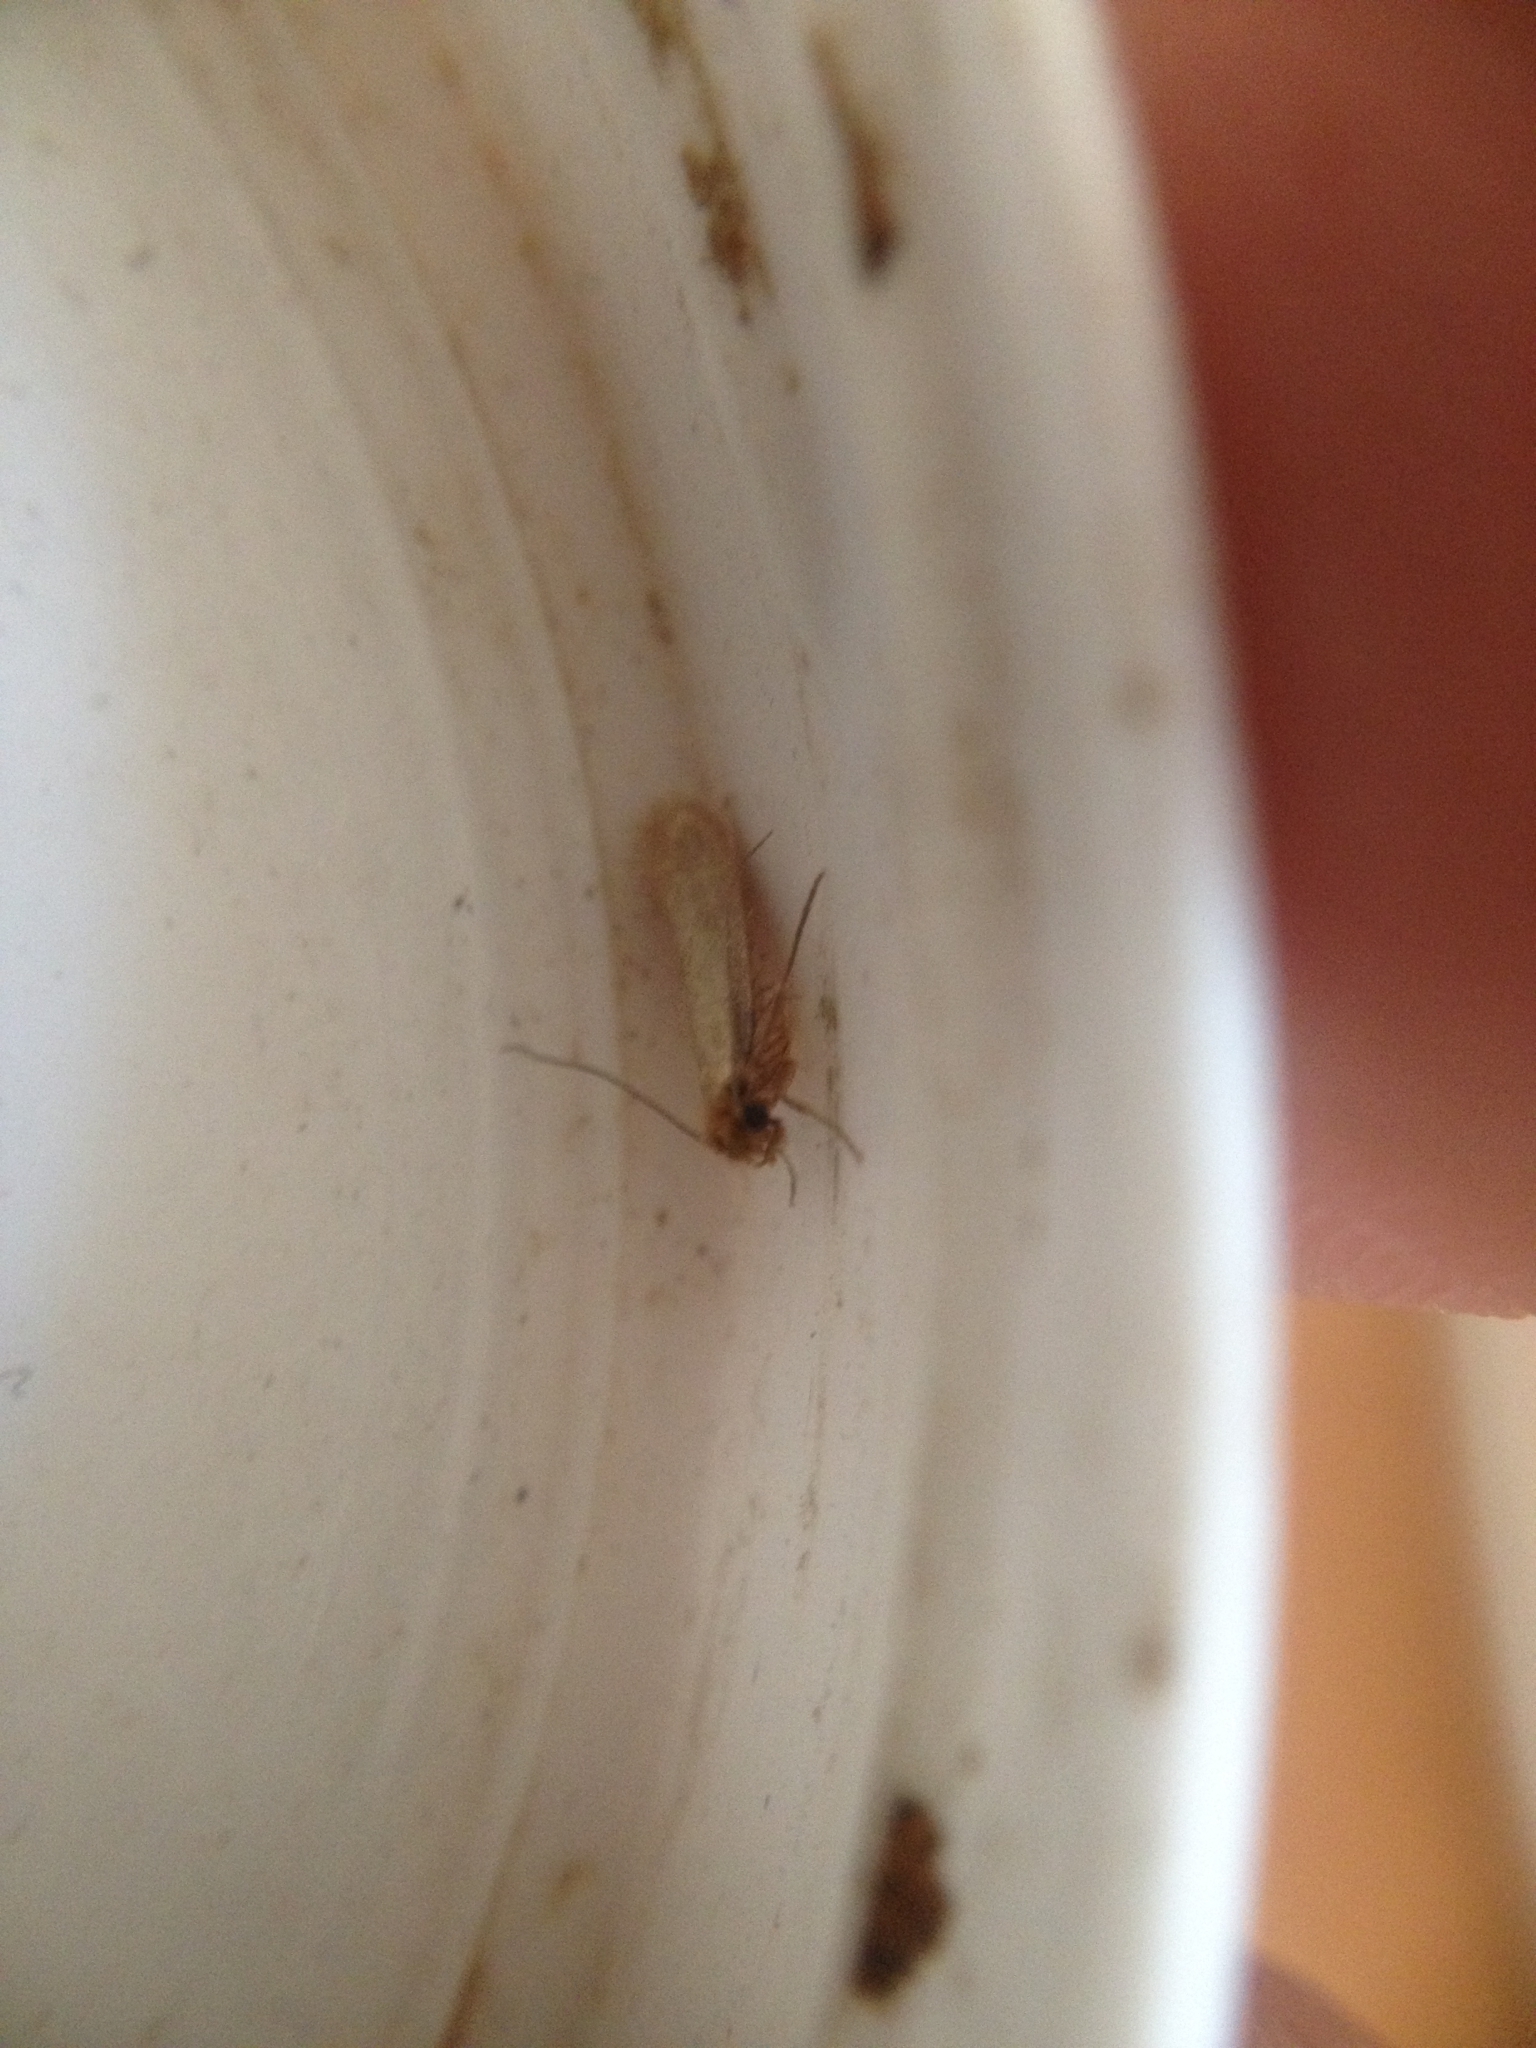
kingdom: Animalia
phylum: Arthropoda
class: Insecta
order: Lepidoptera
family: Tineidae
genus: Tineola
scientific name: Tineola bisselliella
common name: Webbing clothes moth
